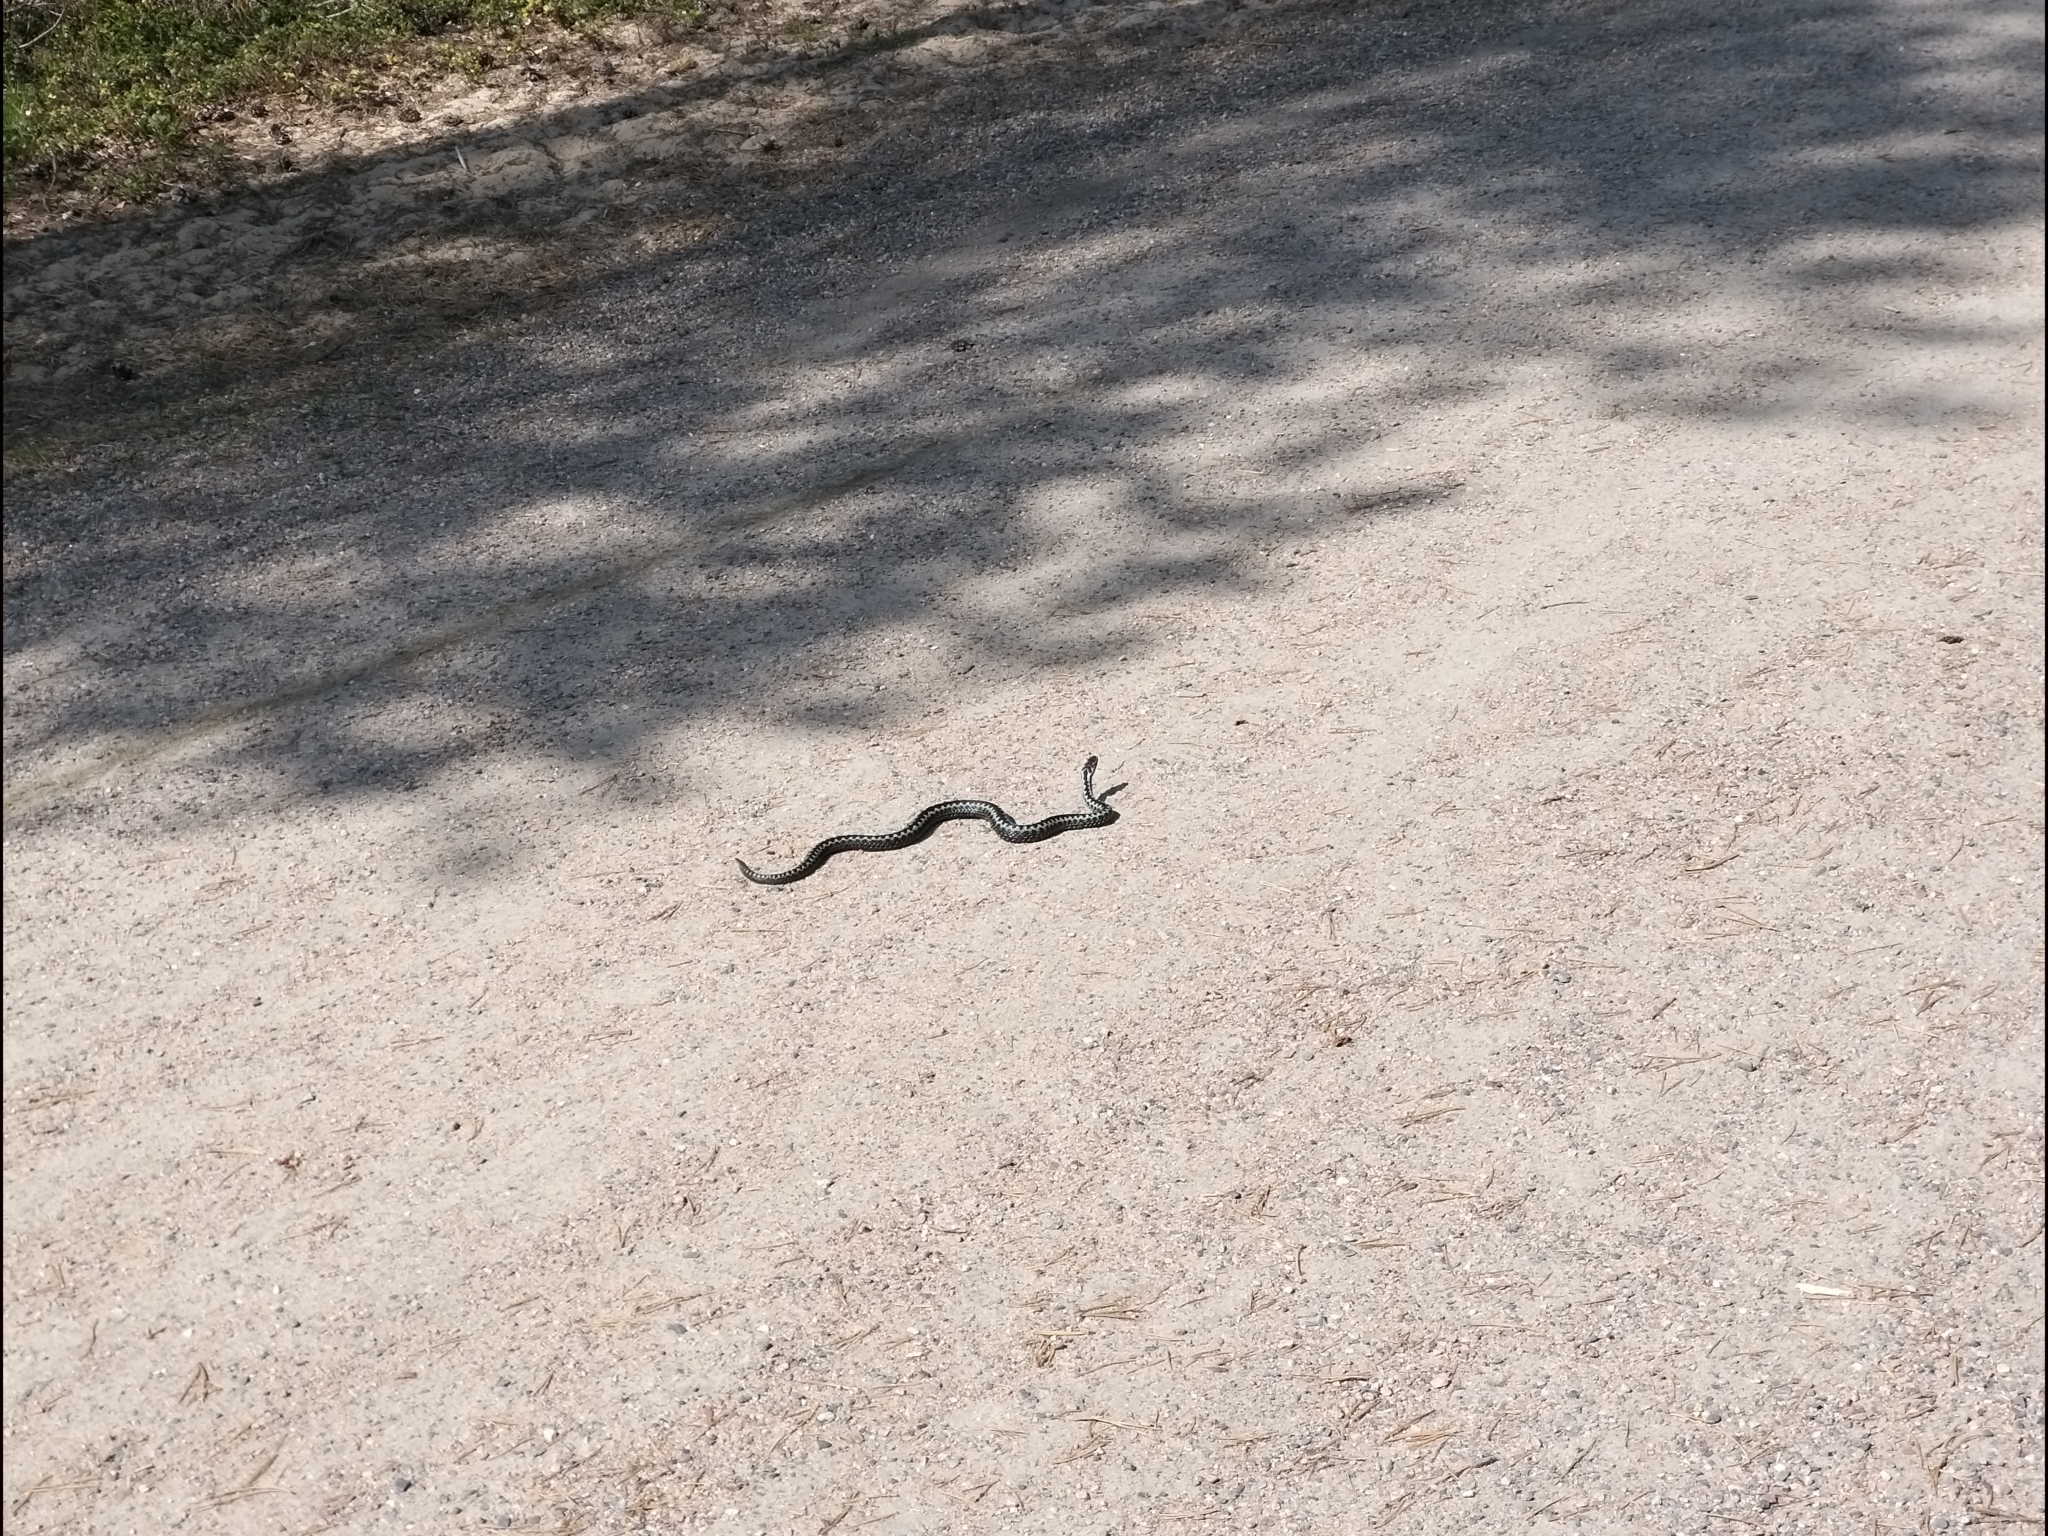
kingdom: Animalia
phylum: Chordata
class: Squamata
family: Viperidae
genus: Vipera
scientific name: Vipera berus
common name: Adder
